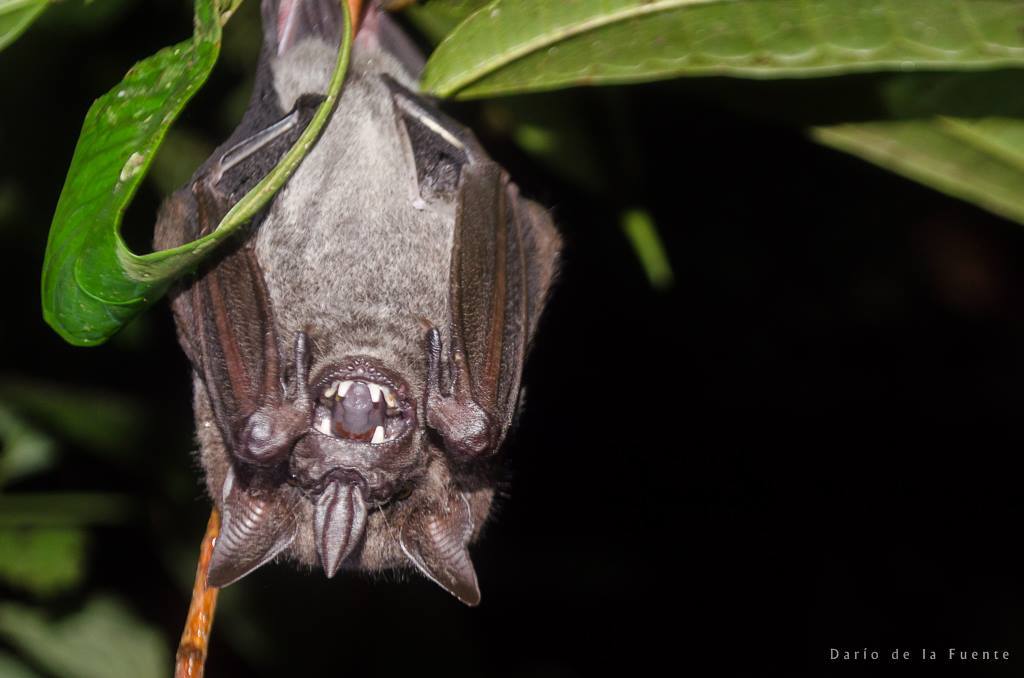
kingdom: Animalia
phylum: Chordata
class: Mammalia
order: Chiroptera
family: Phyllostomidae
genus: Artibeus
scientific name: Artibeus obscurus
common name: Dark fruit-eating bat
